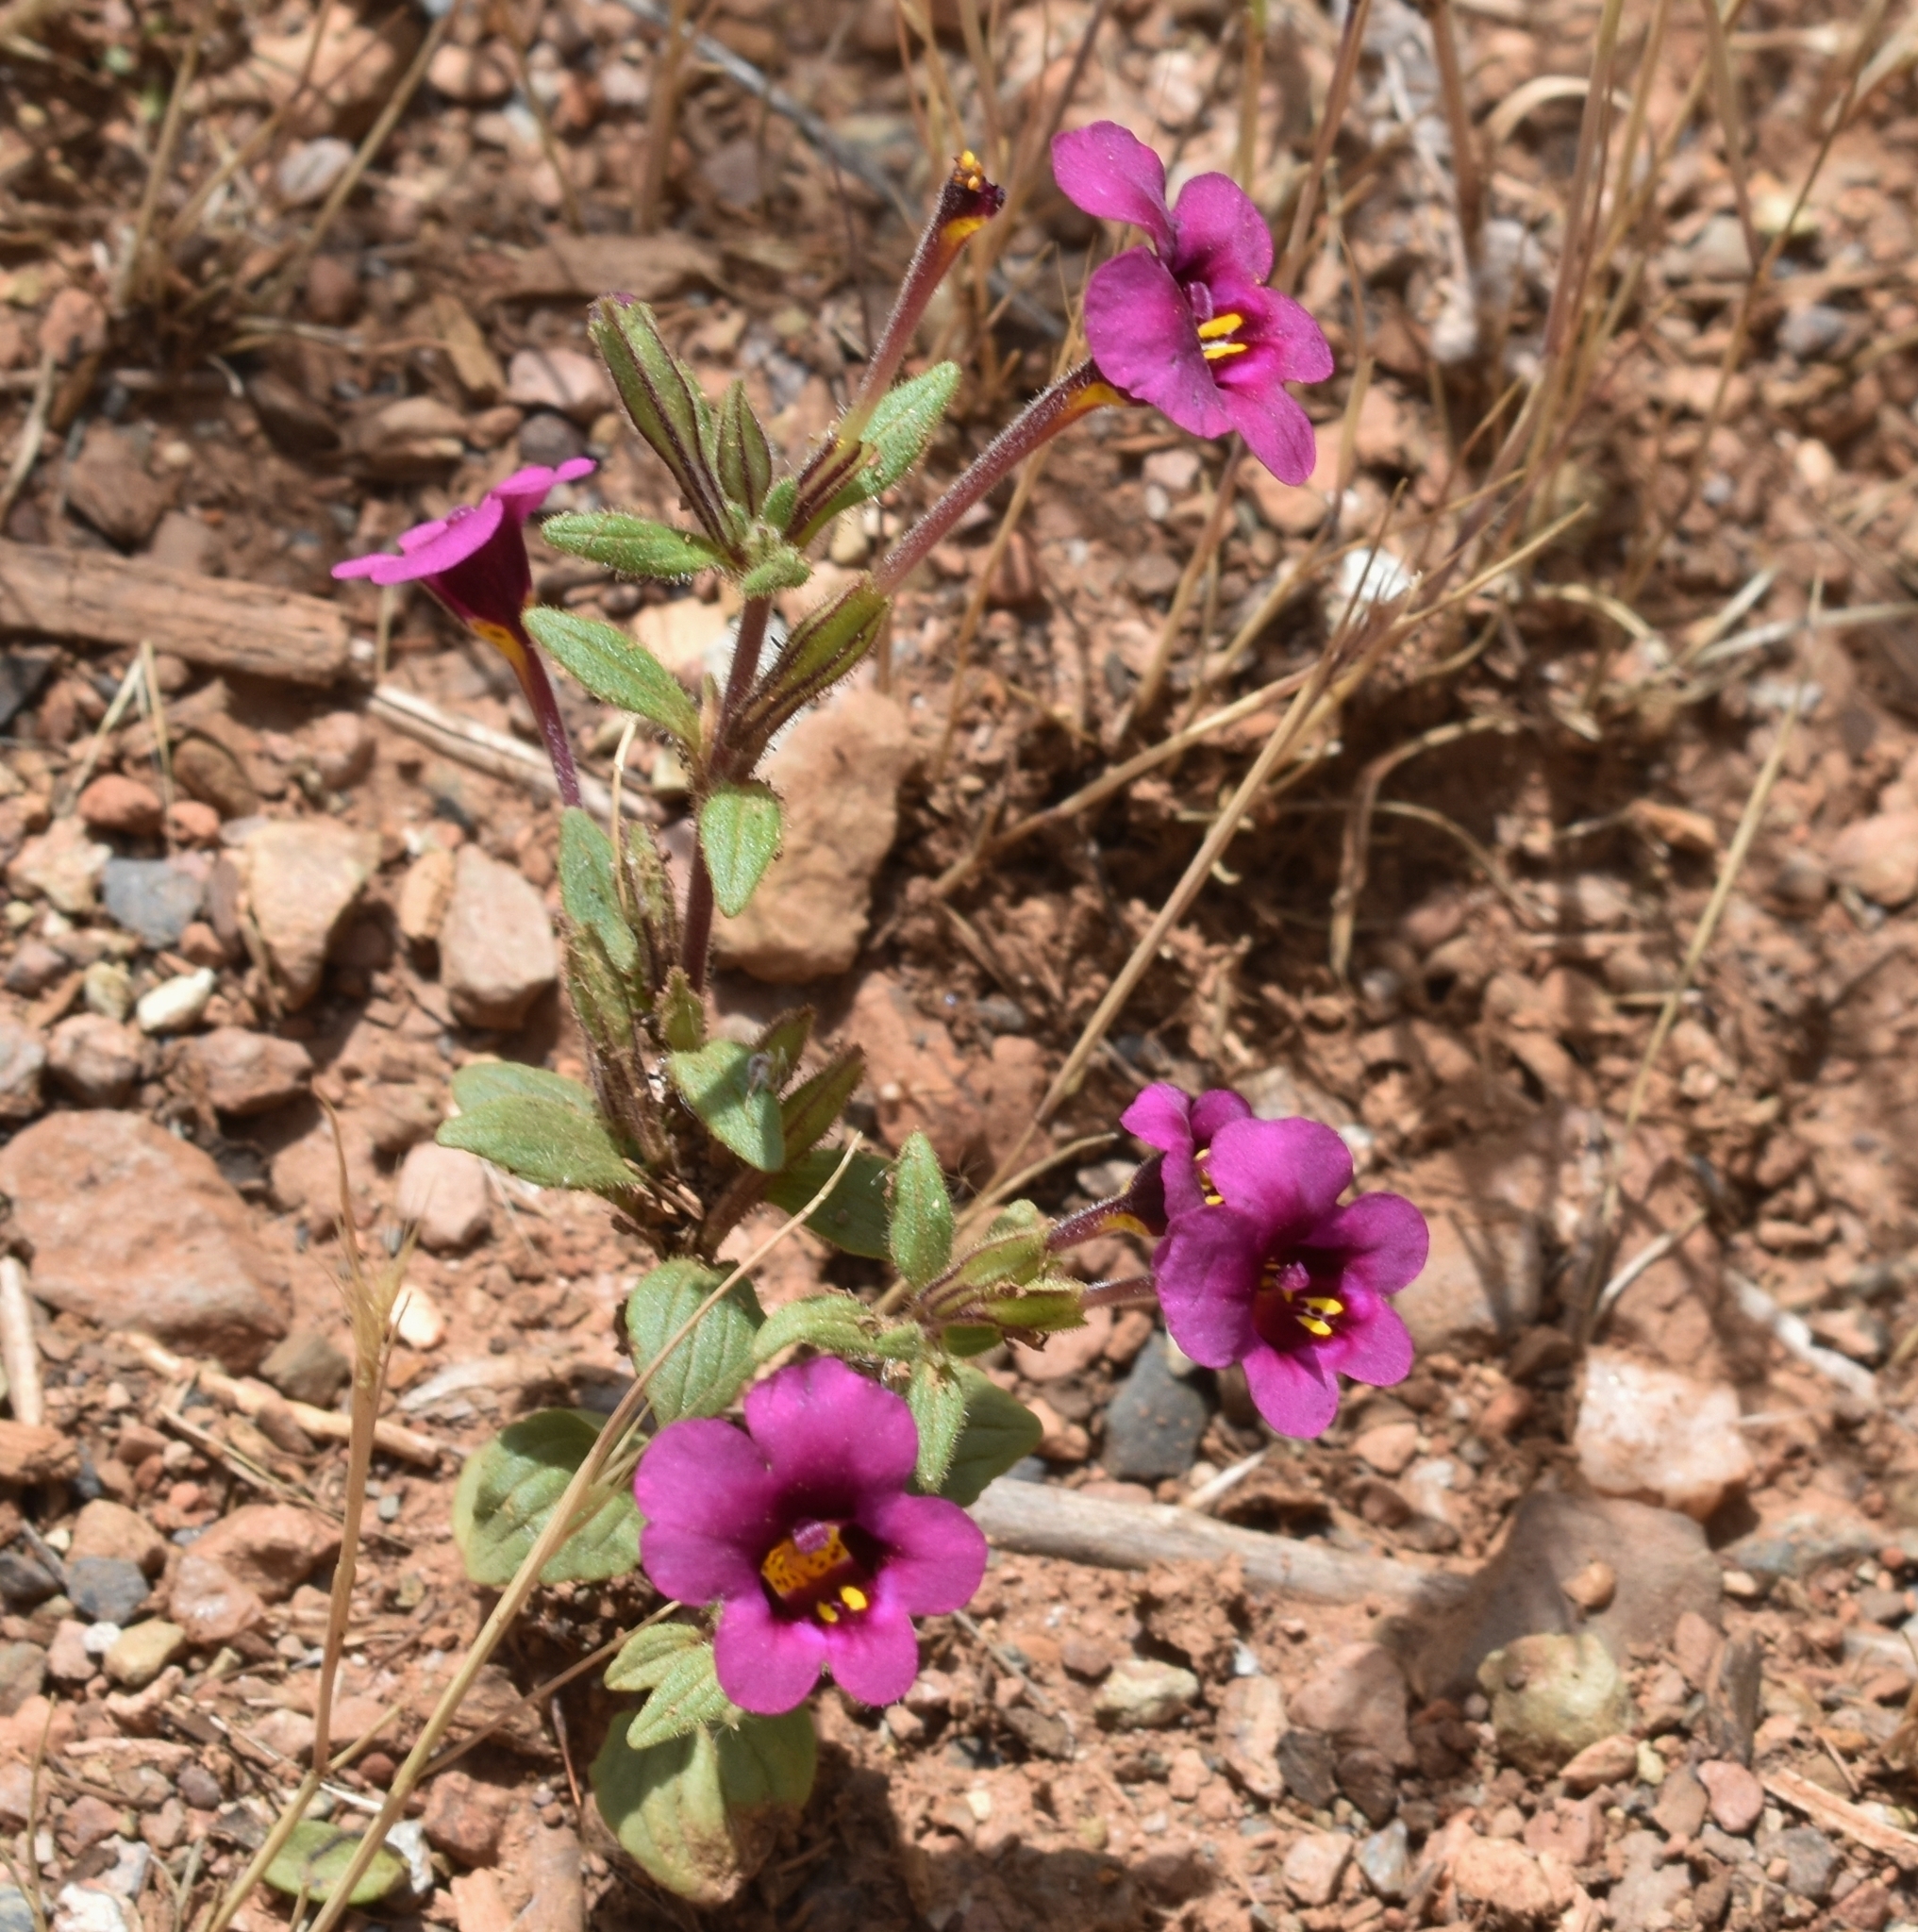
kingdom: Plantae
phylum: Tracheophyta
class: Magnoliopsida
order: Lamiales
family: Phrymaceae
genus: Diplacus
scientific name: Diplacus kelloggii
